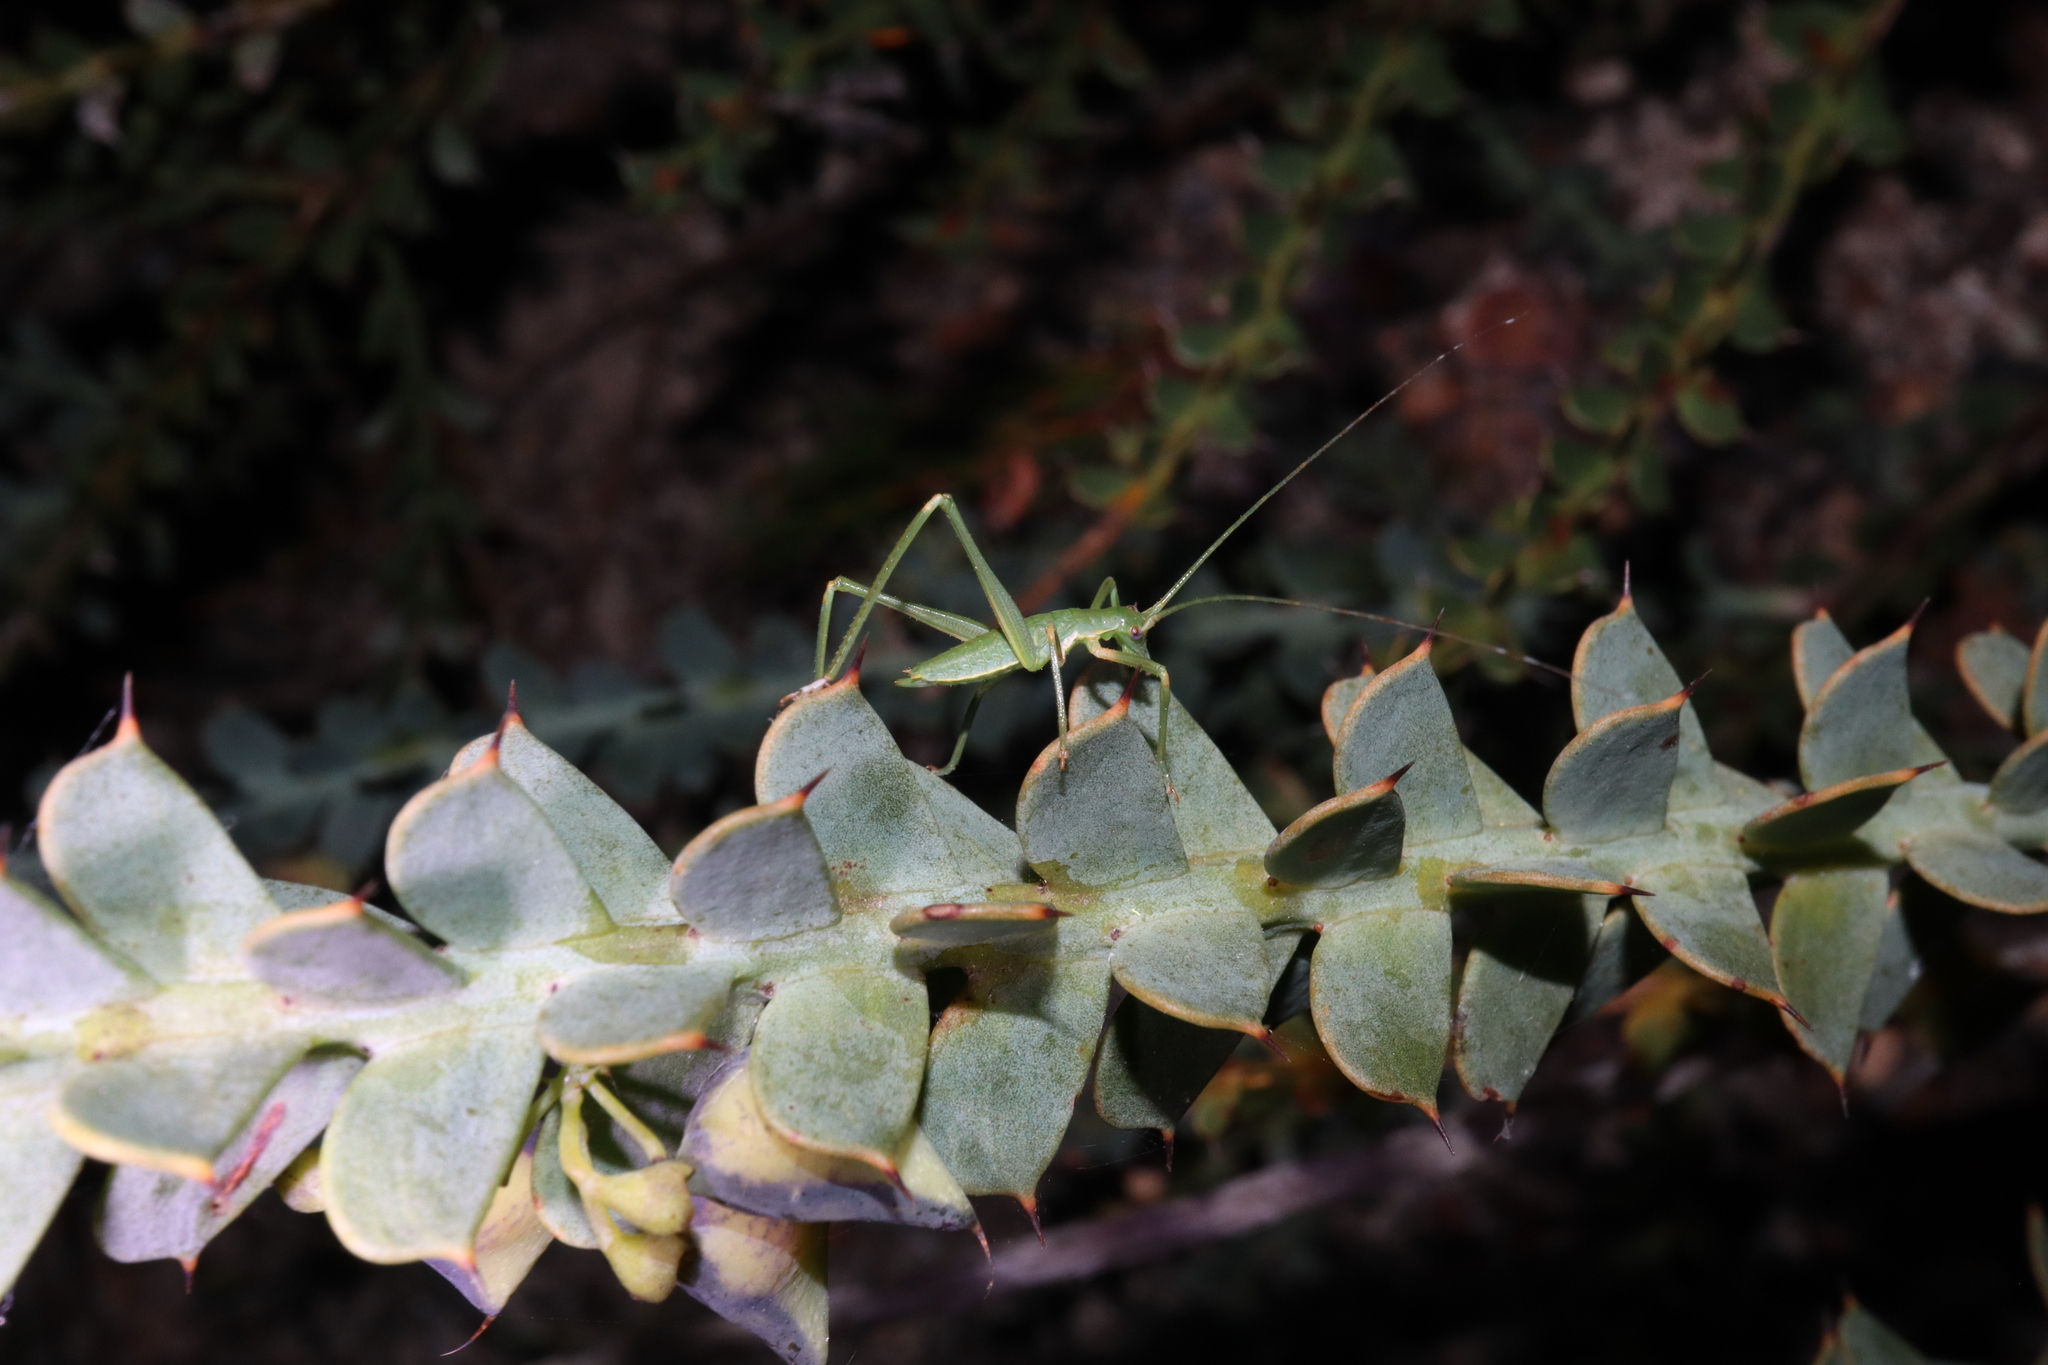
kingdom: Animalia
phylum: Arthropoda
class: Insecta
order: Orthoptera
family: Tettigoniidae
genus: Windbalea
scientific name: Windbalea viride
